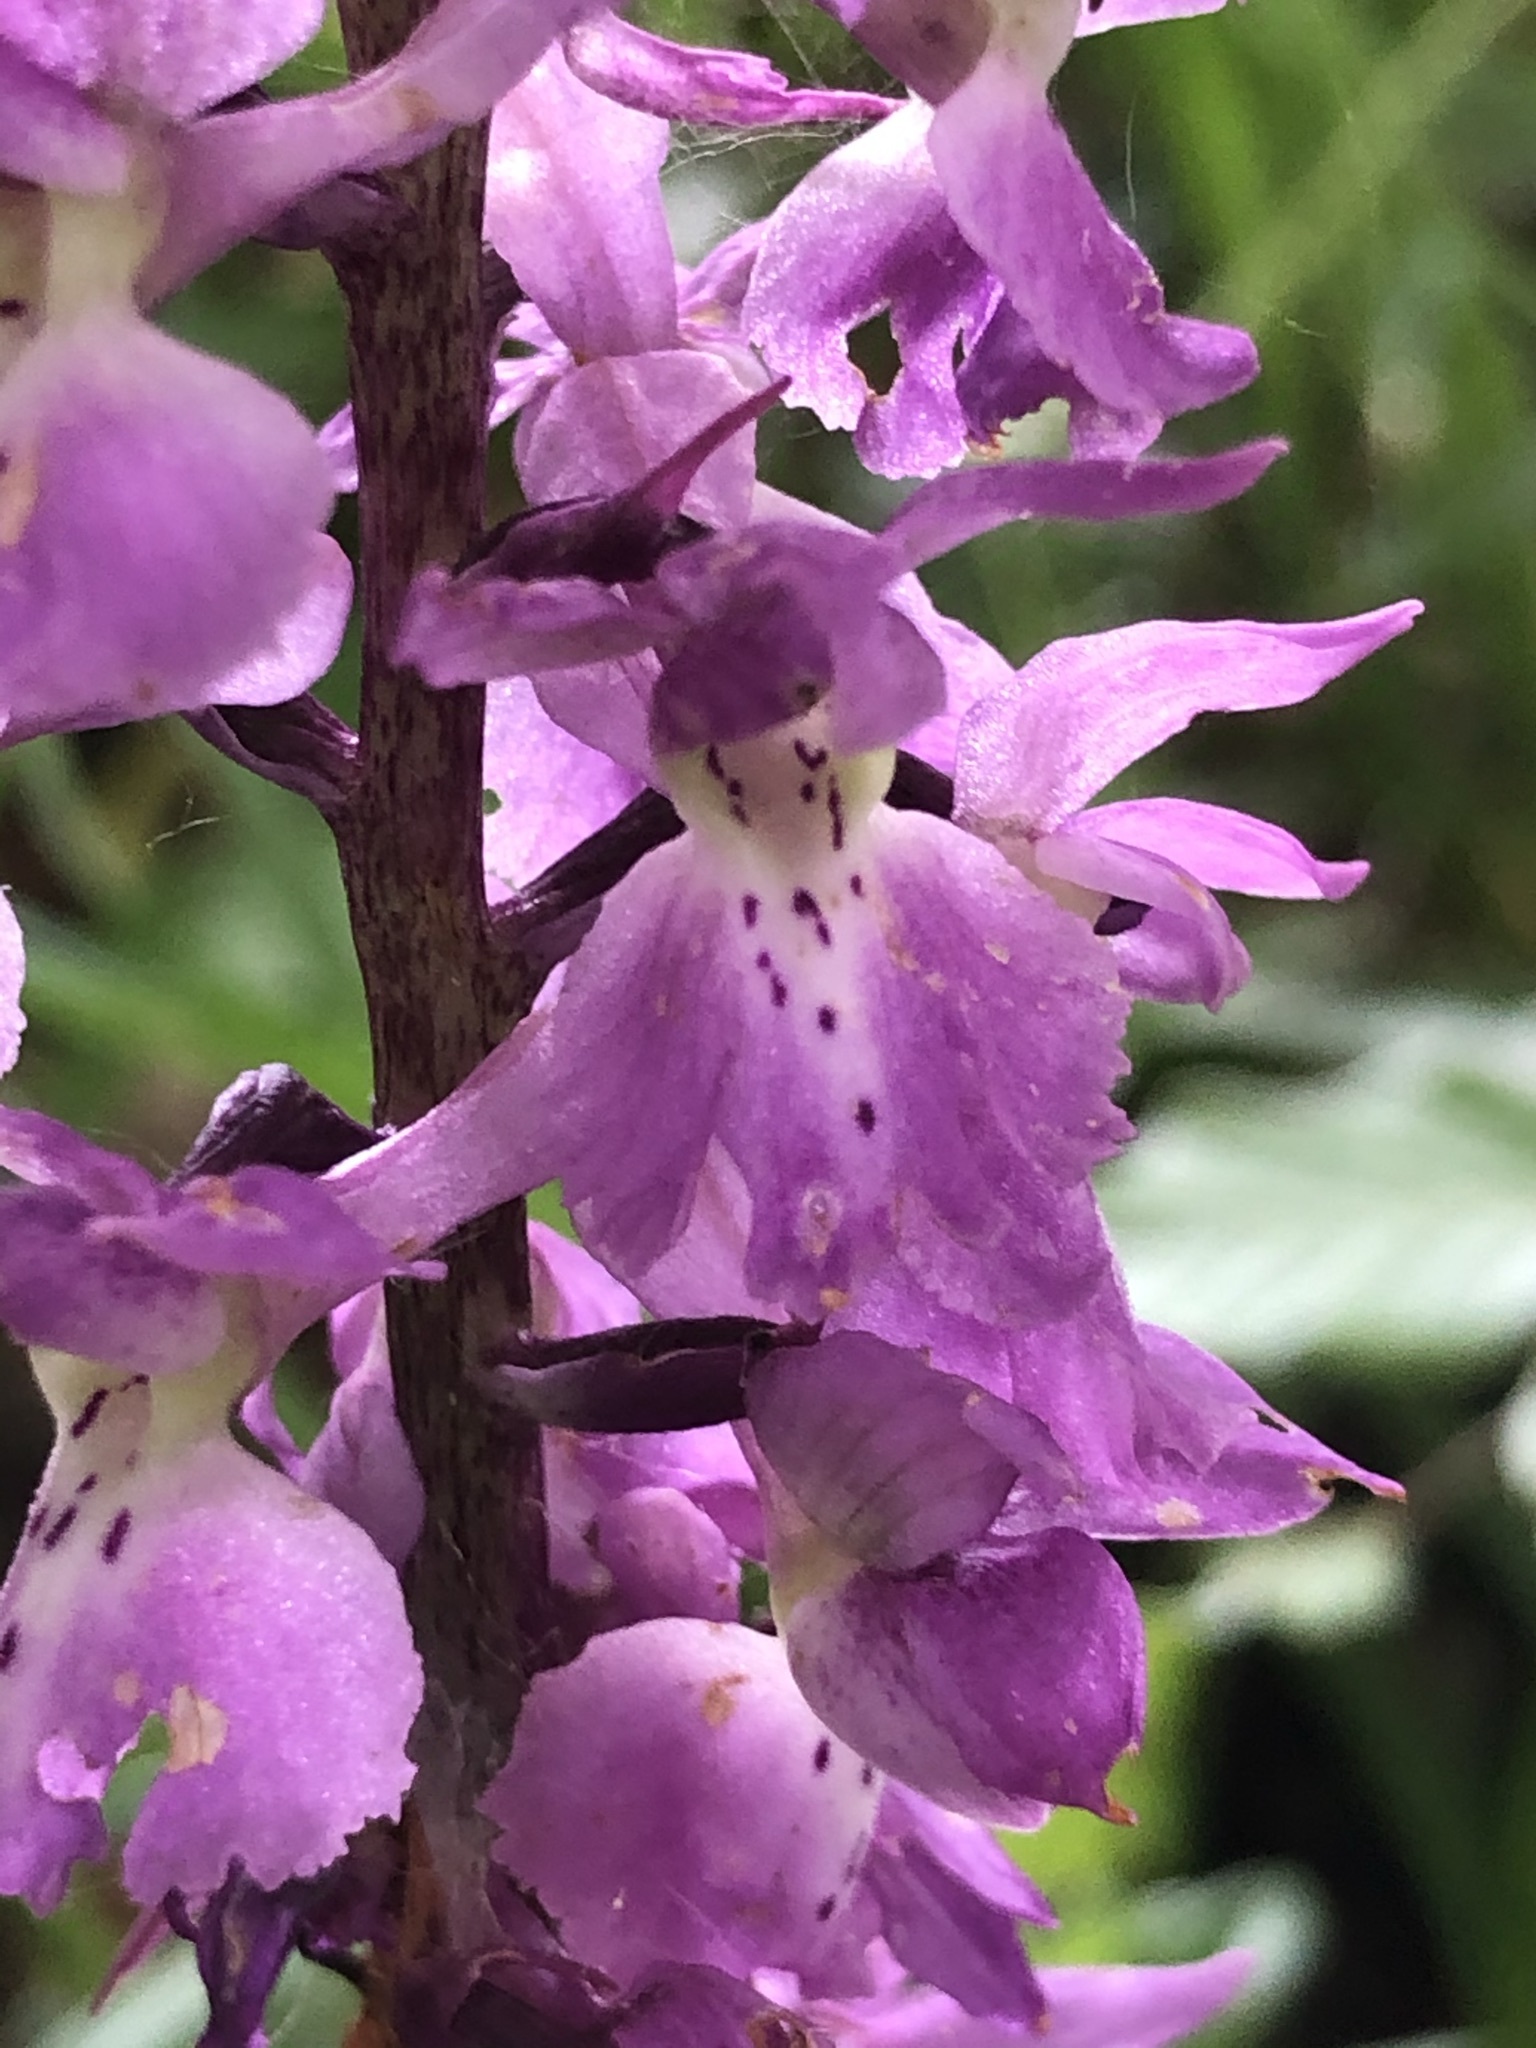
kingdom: Plantae
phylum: Tracheophyta
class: Liliopsida
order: Asparagales
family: Orchidaceae
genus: Orchis
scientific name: Orchis mascula
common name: Early-purple orchid
